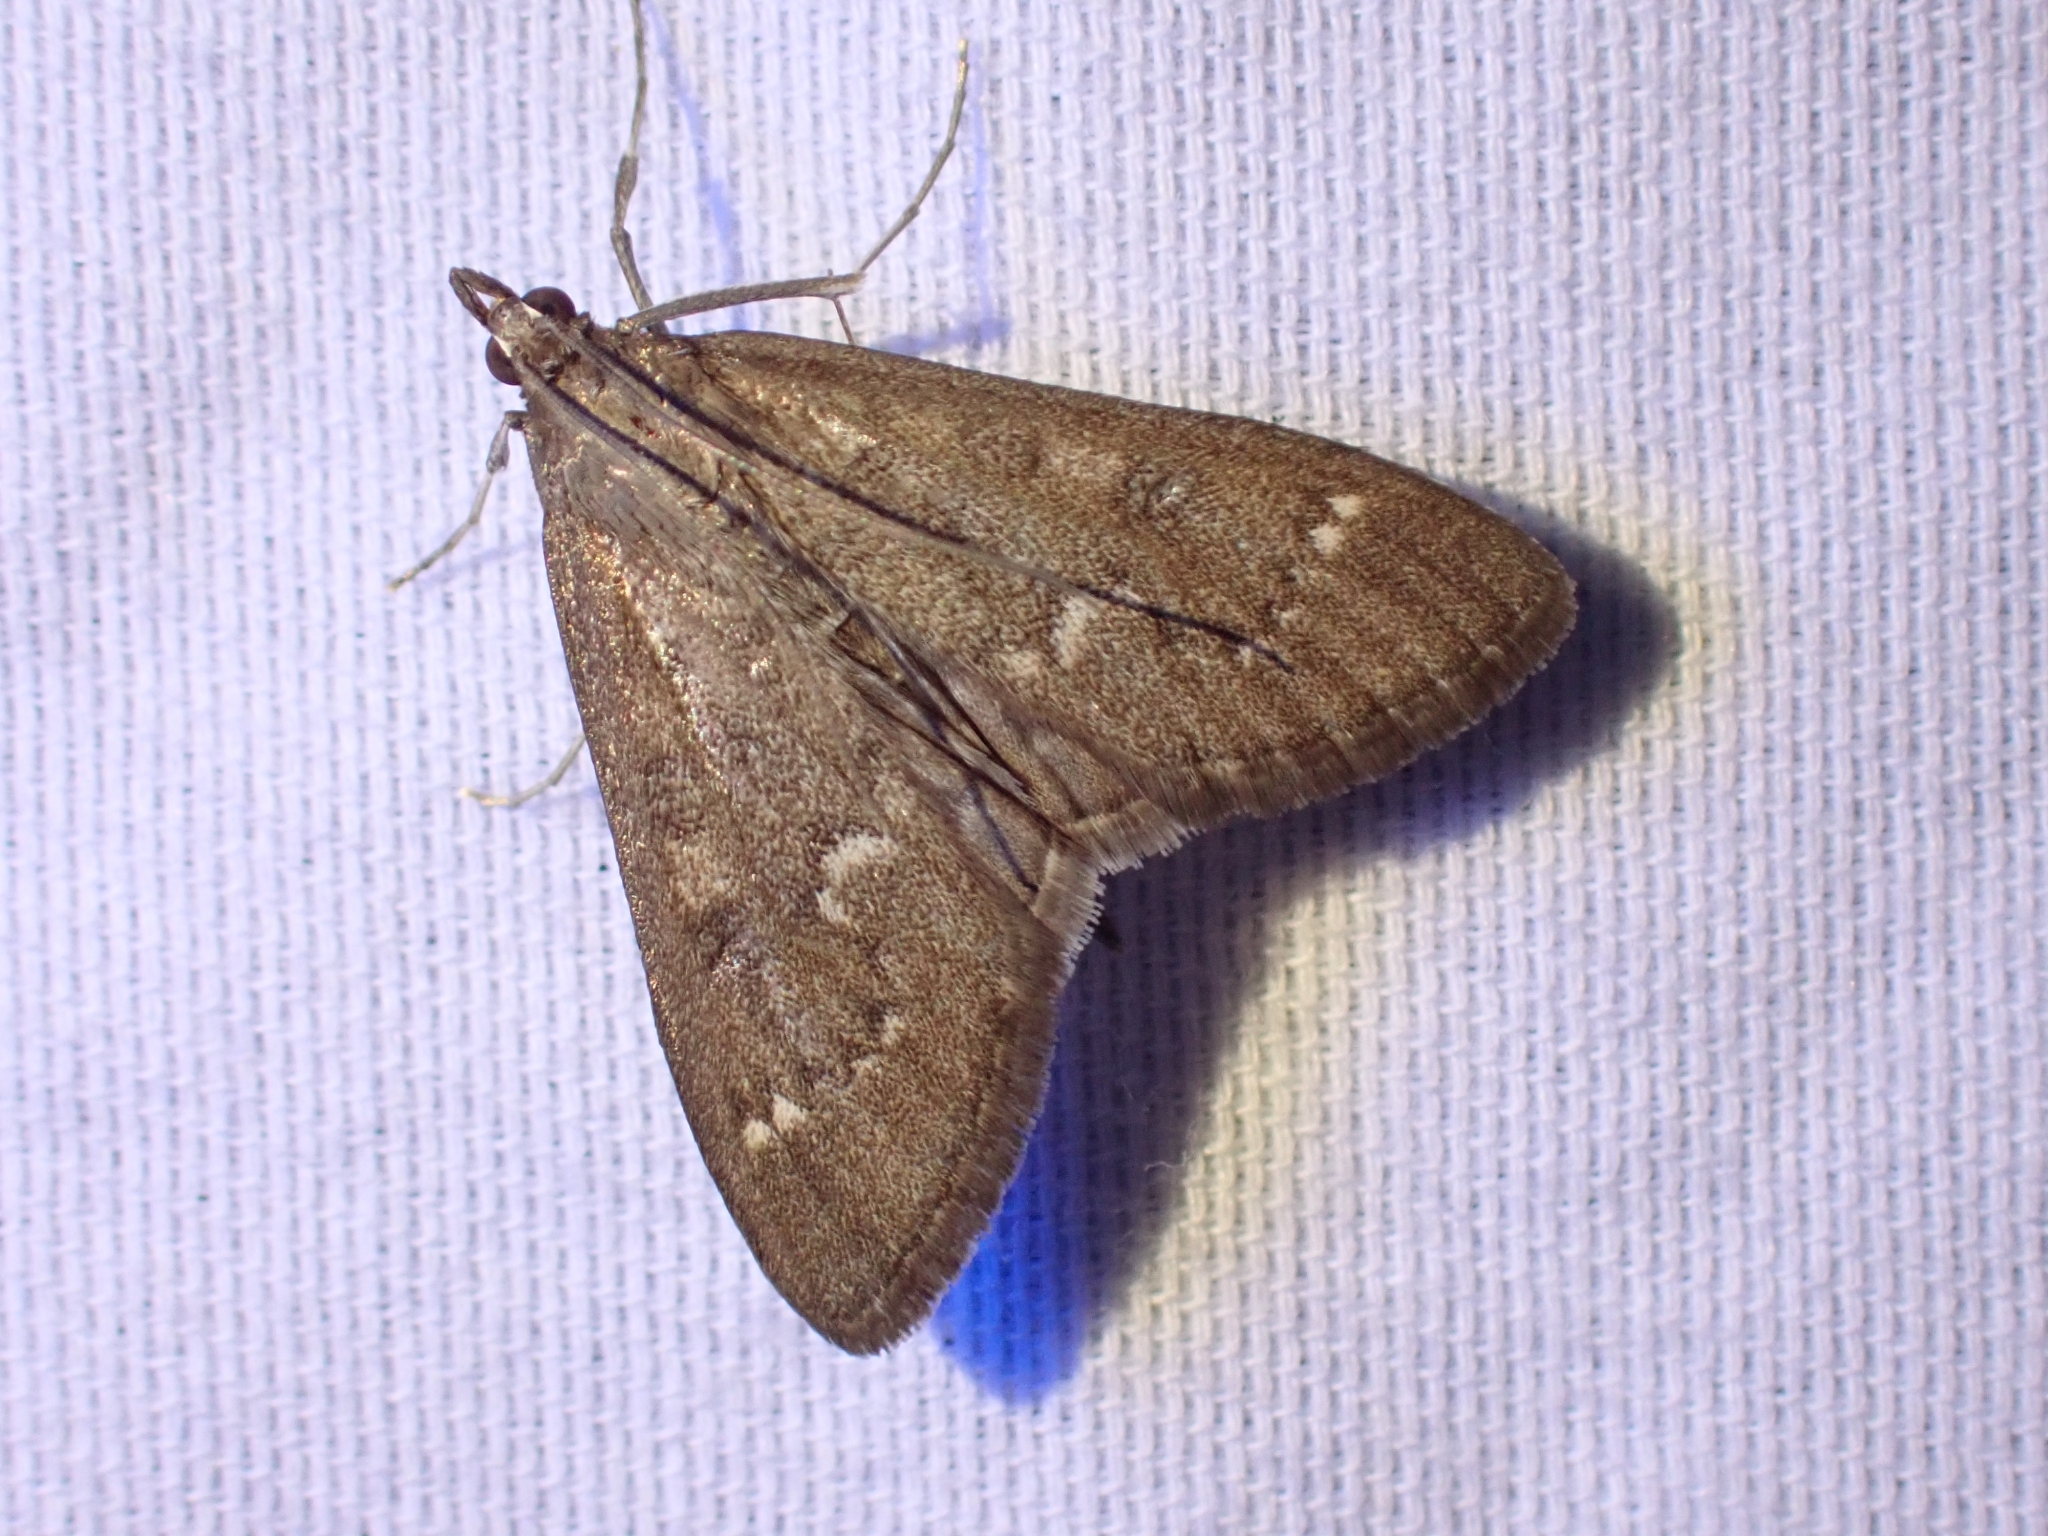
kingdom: Animalia
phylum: Arthropoda
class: Insecta
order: Lepidoptera
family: Crambidae
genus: Mecyna
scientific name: Mecyna mustelinalis
